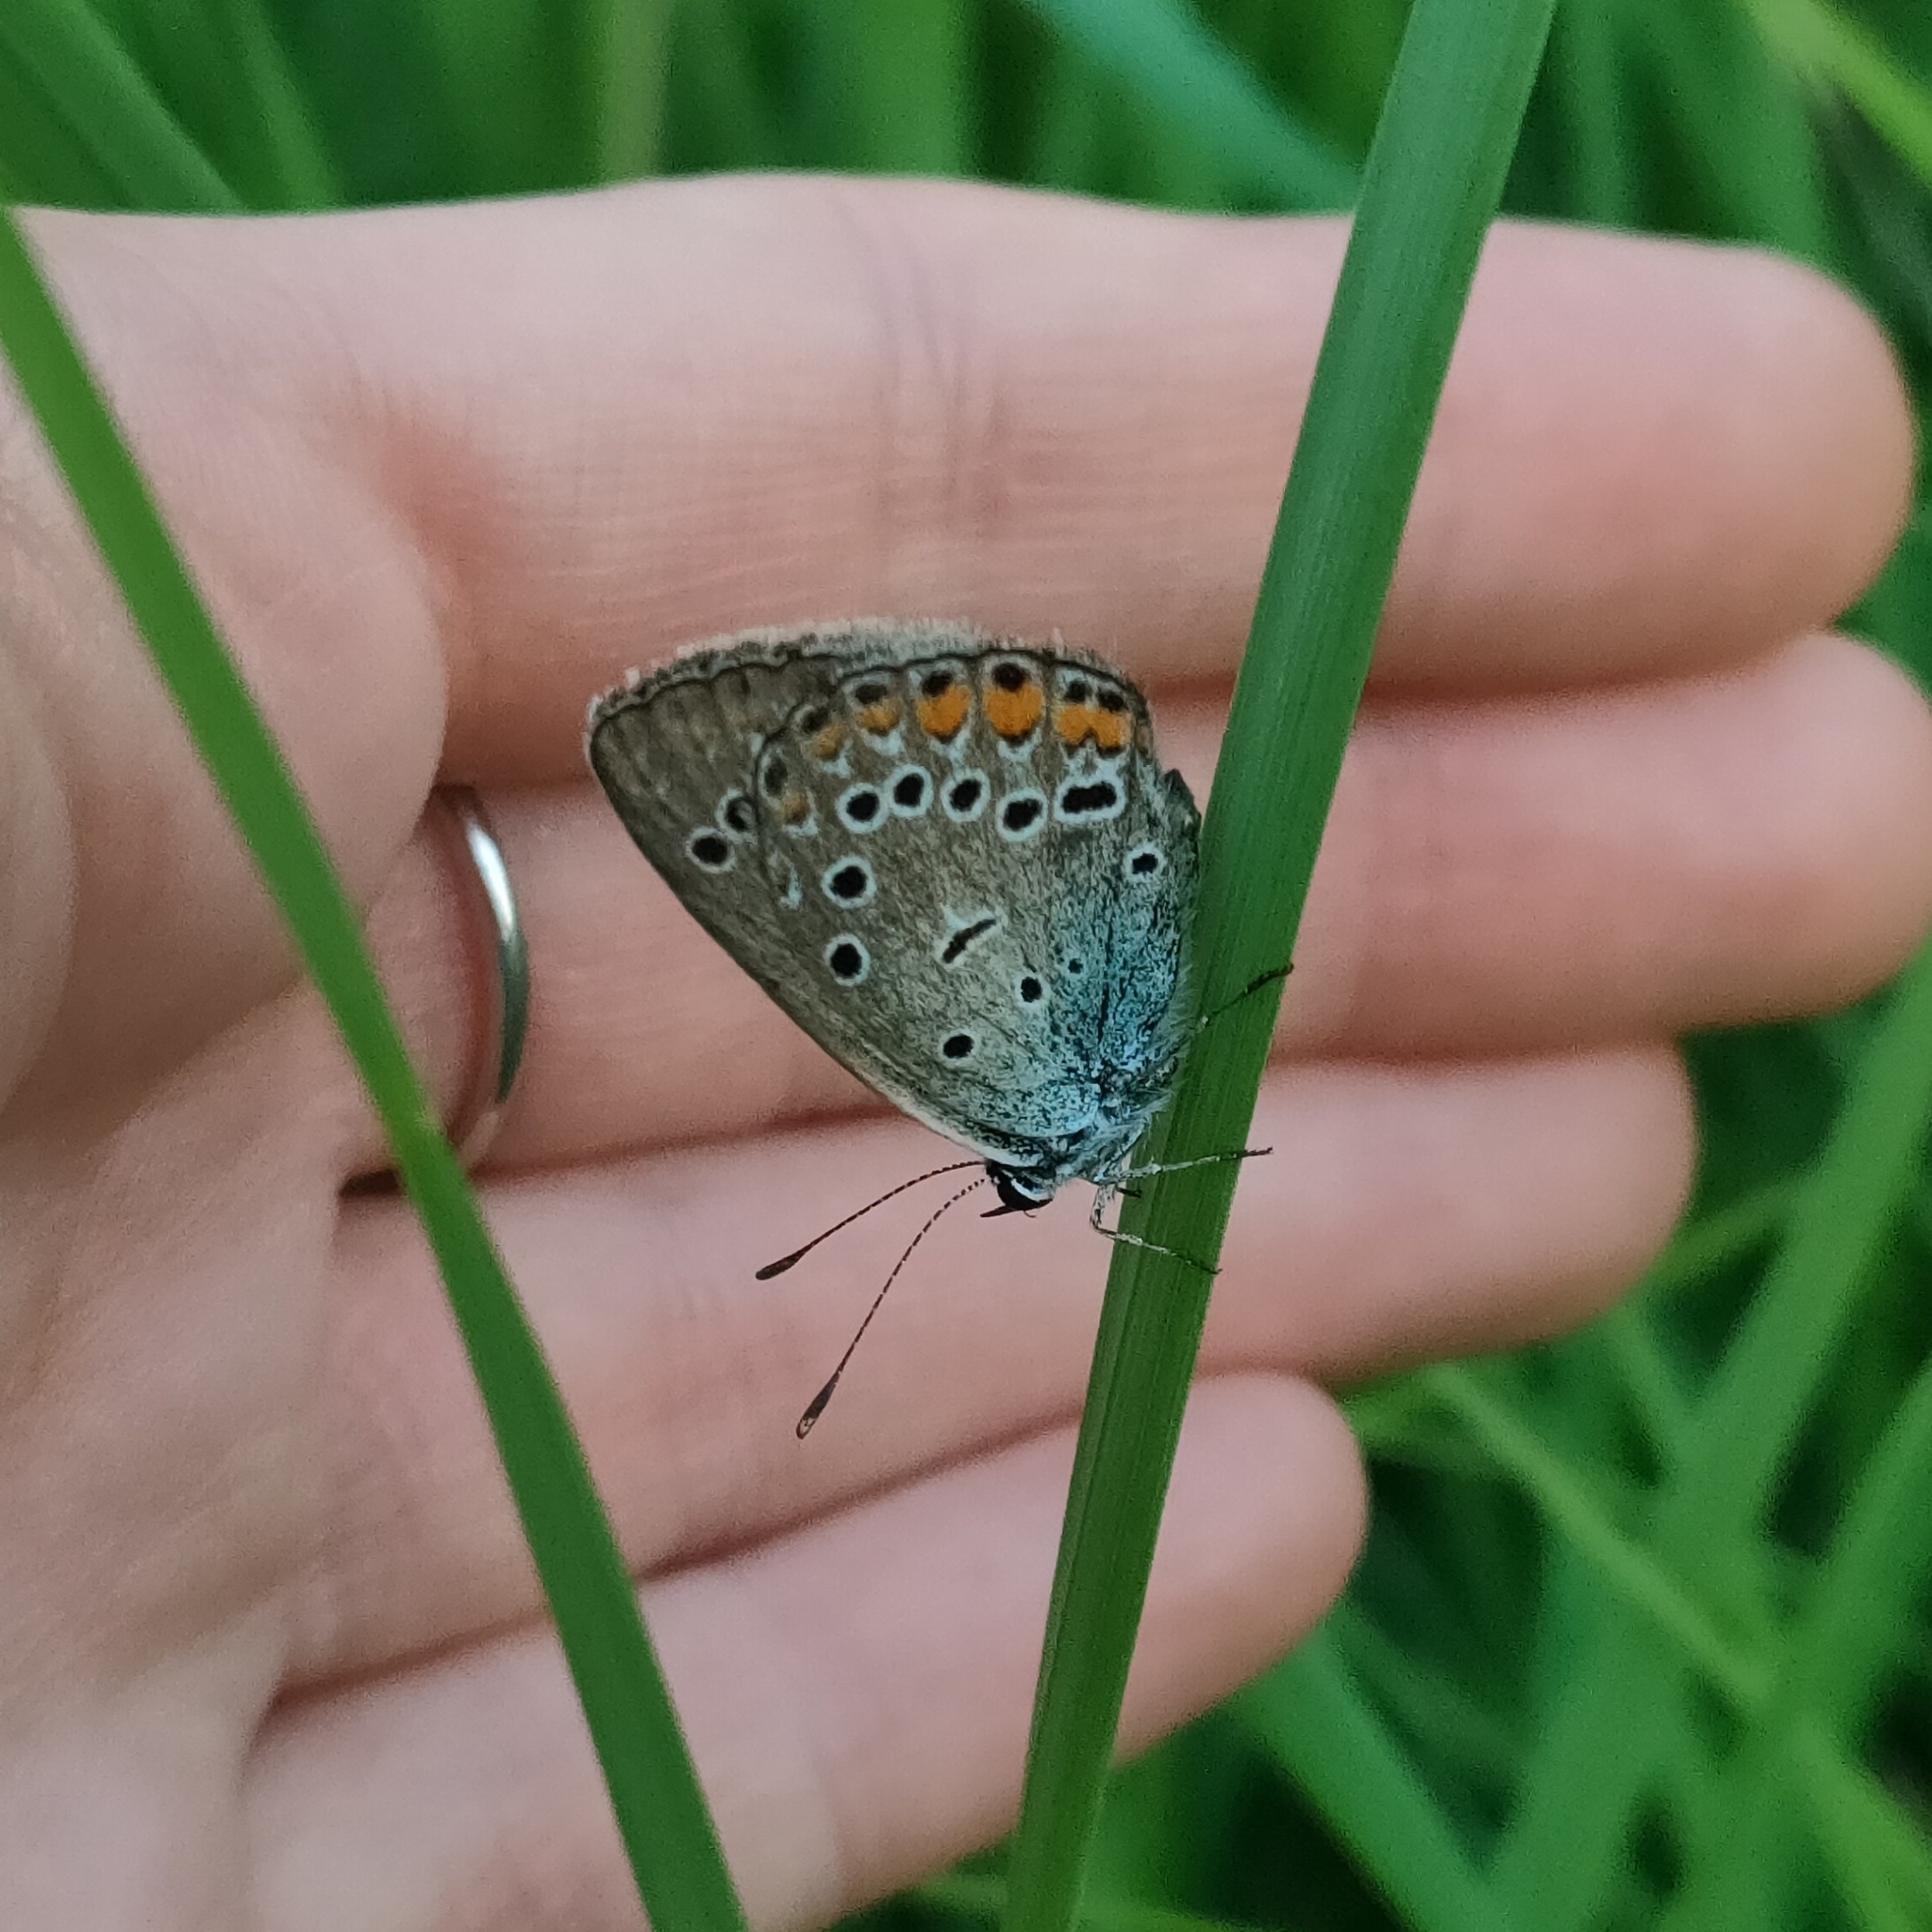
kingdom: Animalia
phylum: Arthropoda
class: Insecta
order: Lepidoptera
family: Lycaenidae
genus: Plebejus
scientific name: Plebejus amanda
